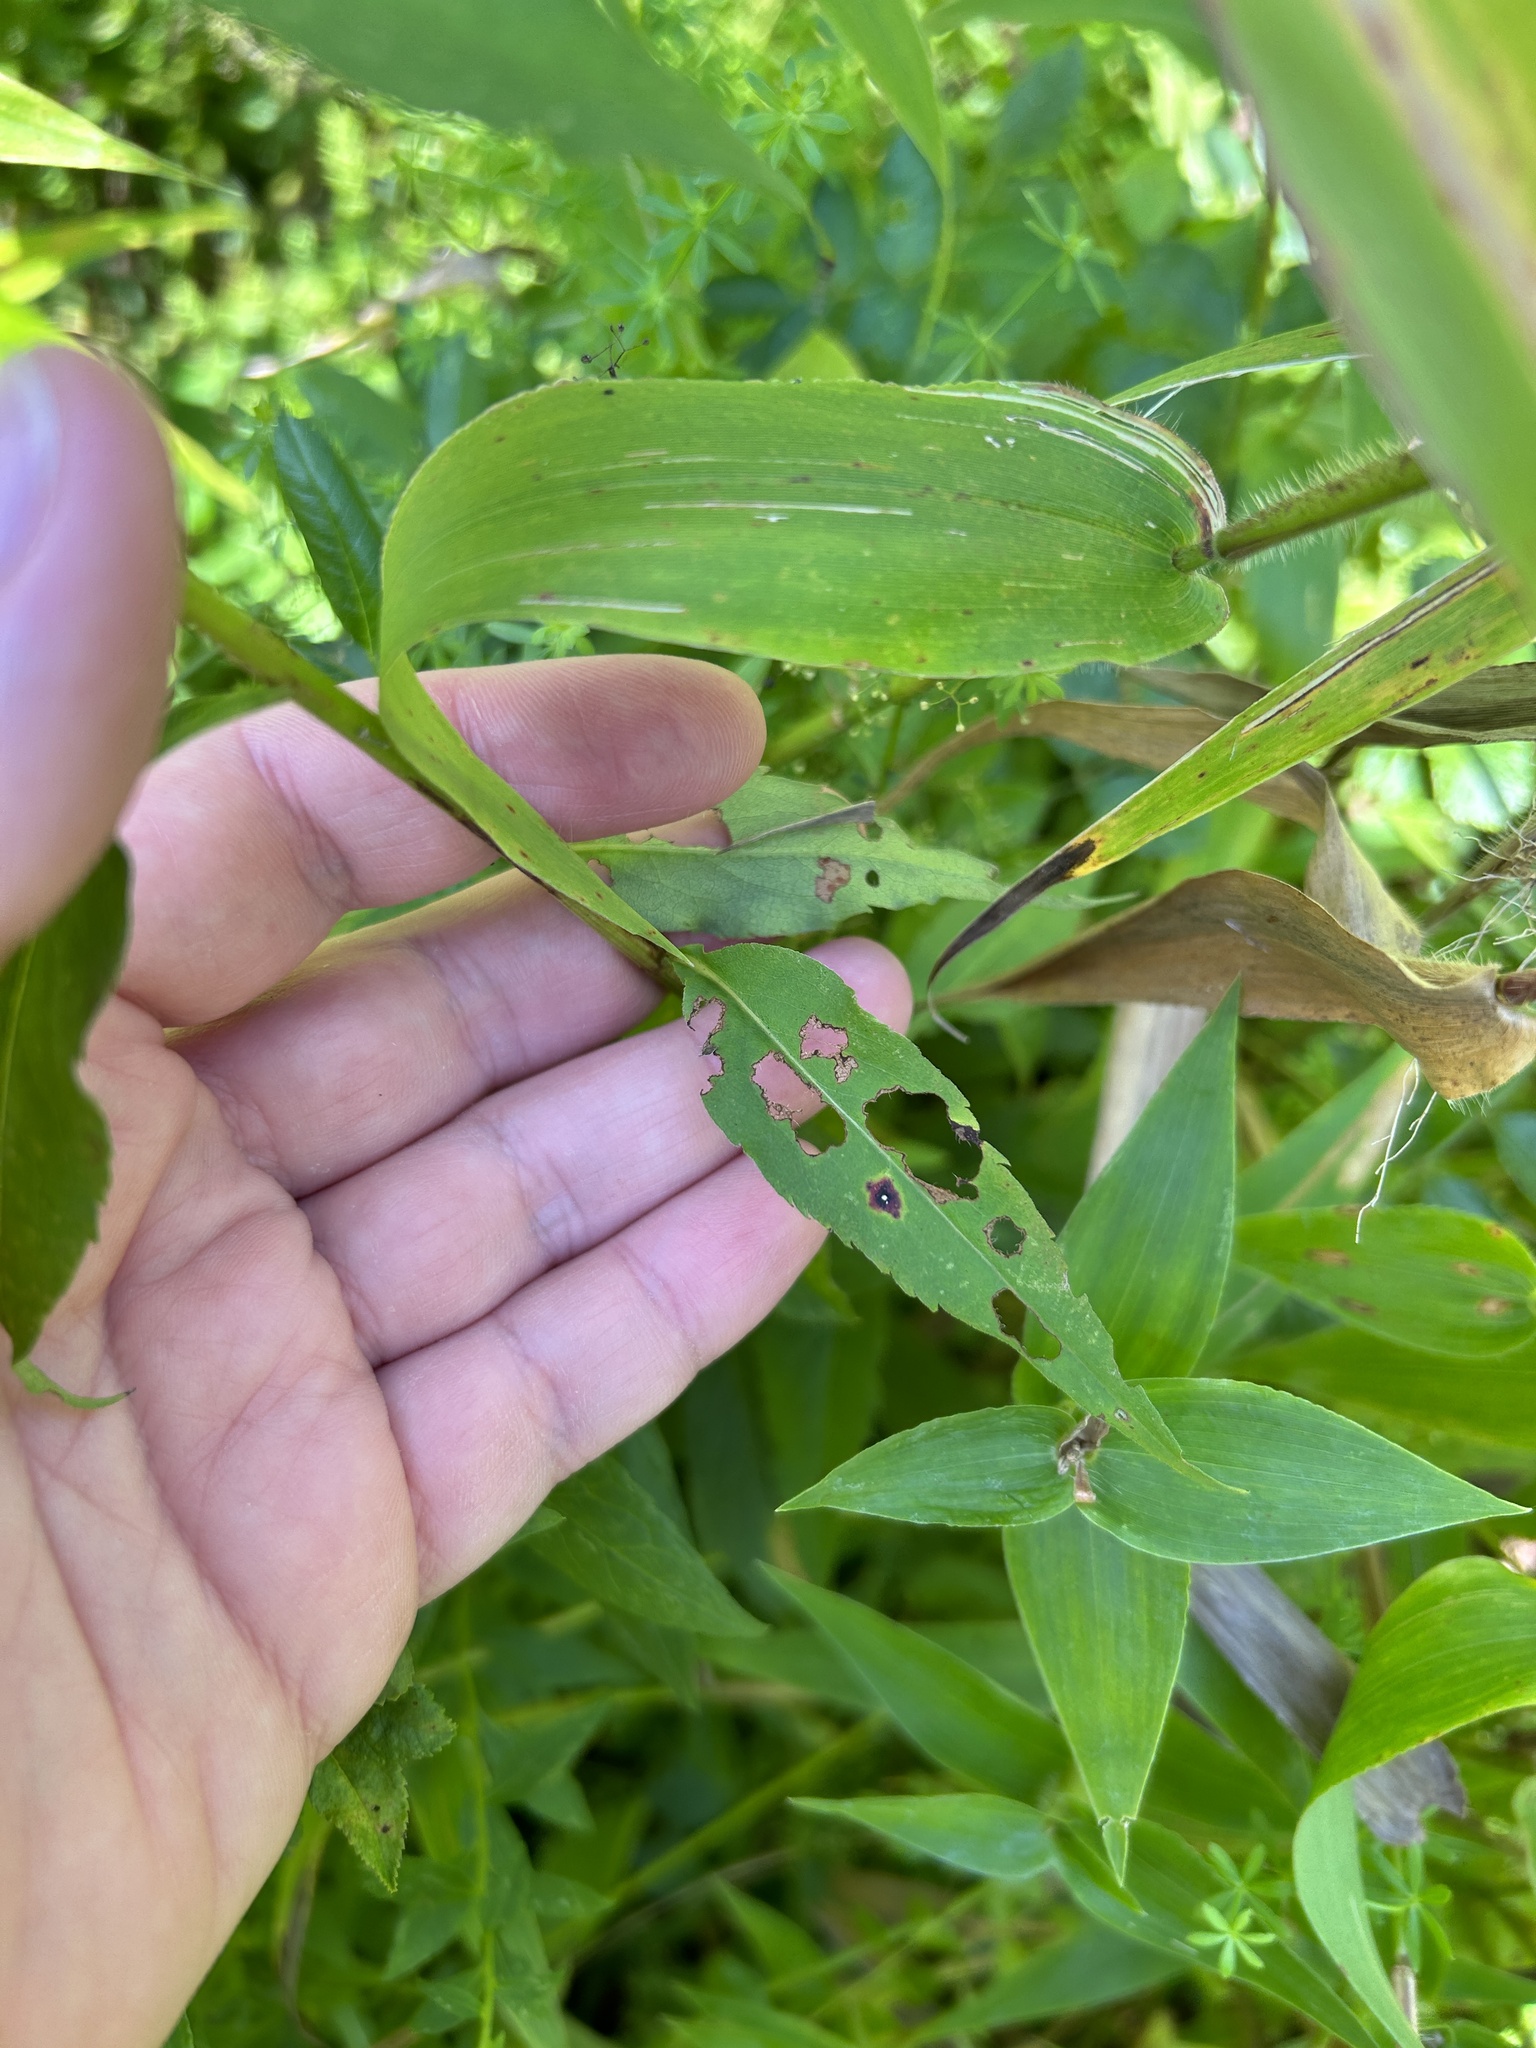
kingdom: Plantae
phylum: Tracheophyta
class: Magnoliopsida
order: Asterales
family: Asteraceae
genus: Symphyotrichum
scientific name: Symphyotrichum urophyllum
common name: Arrow-leaved aster
